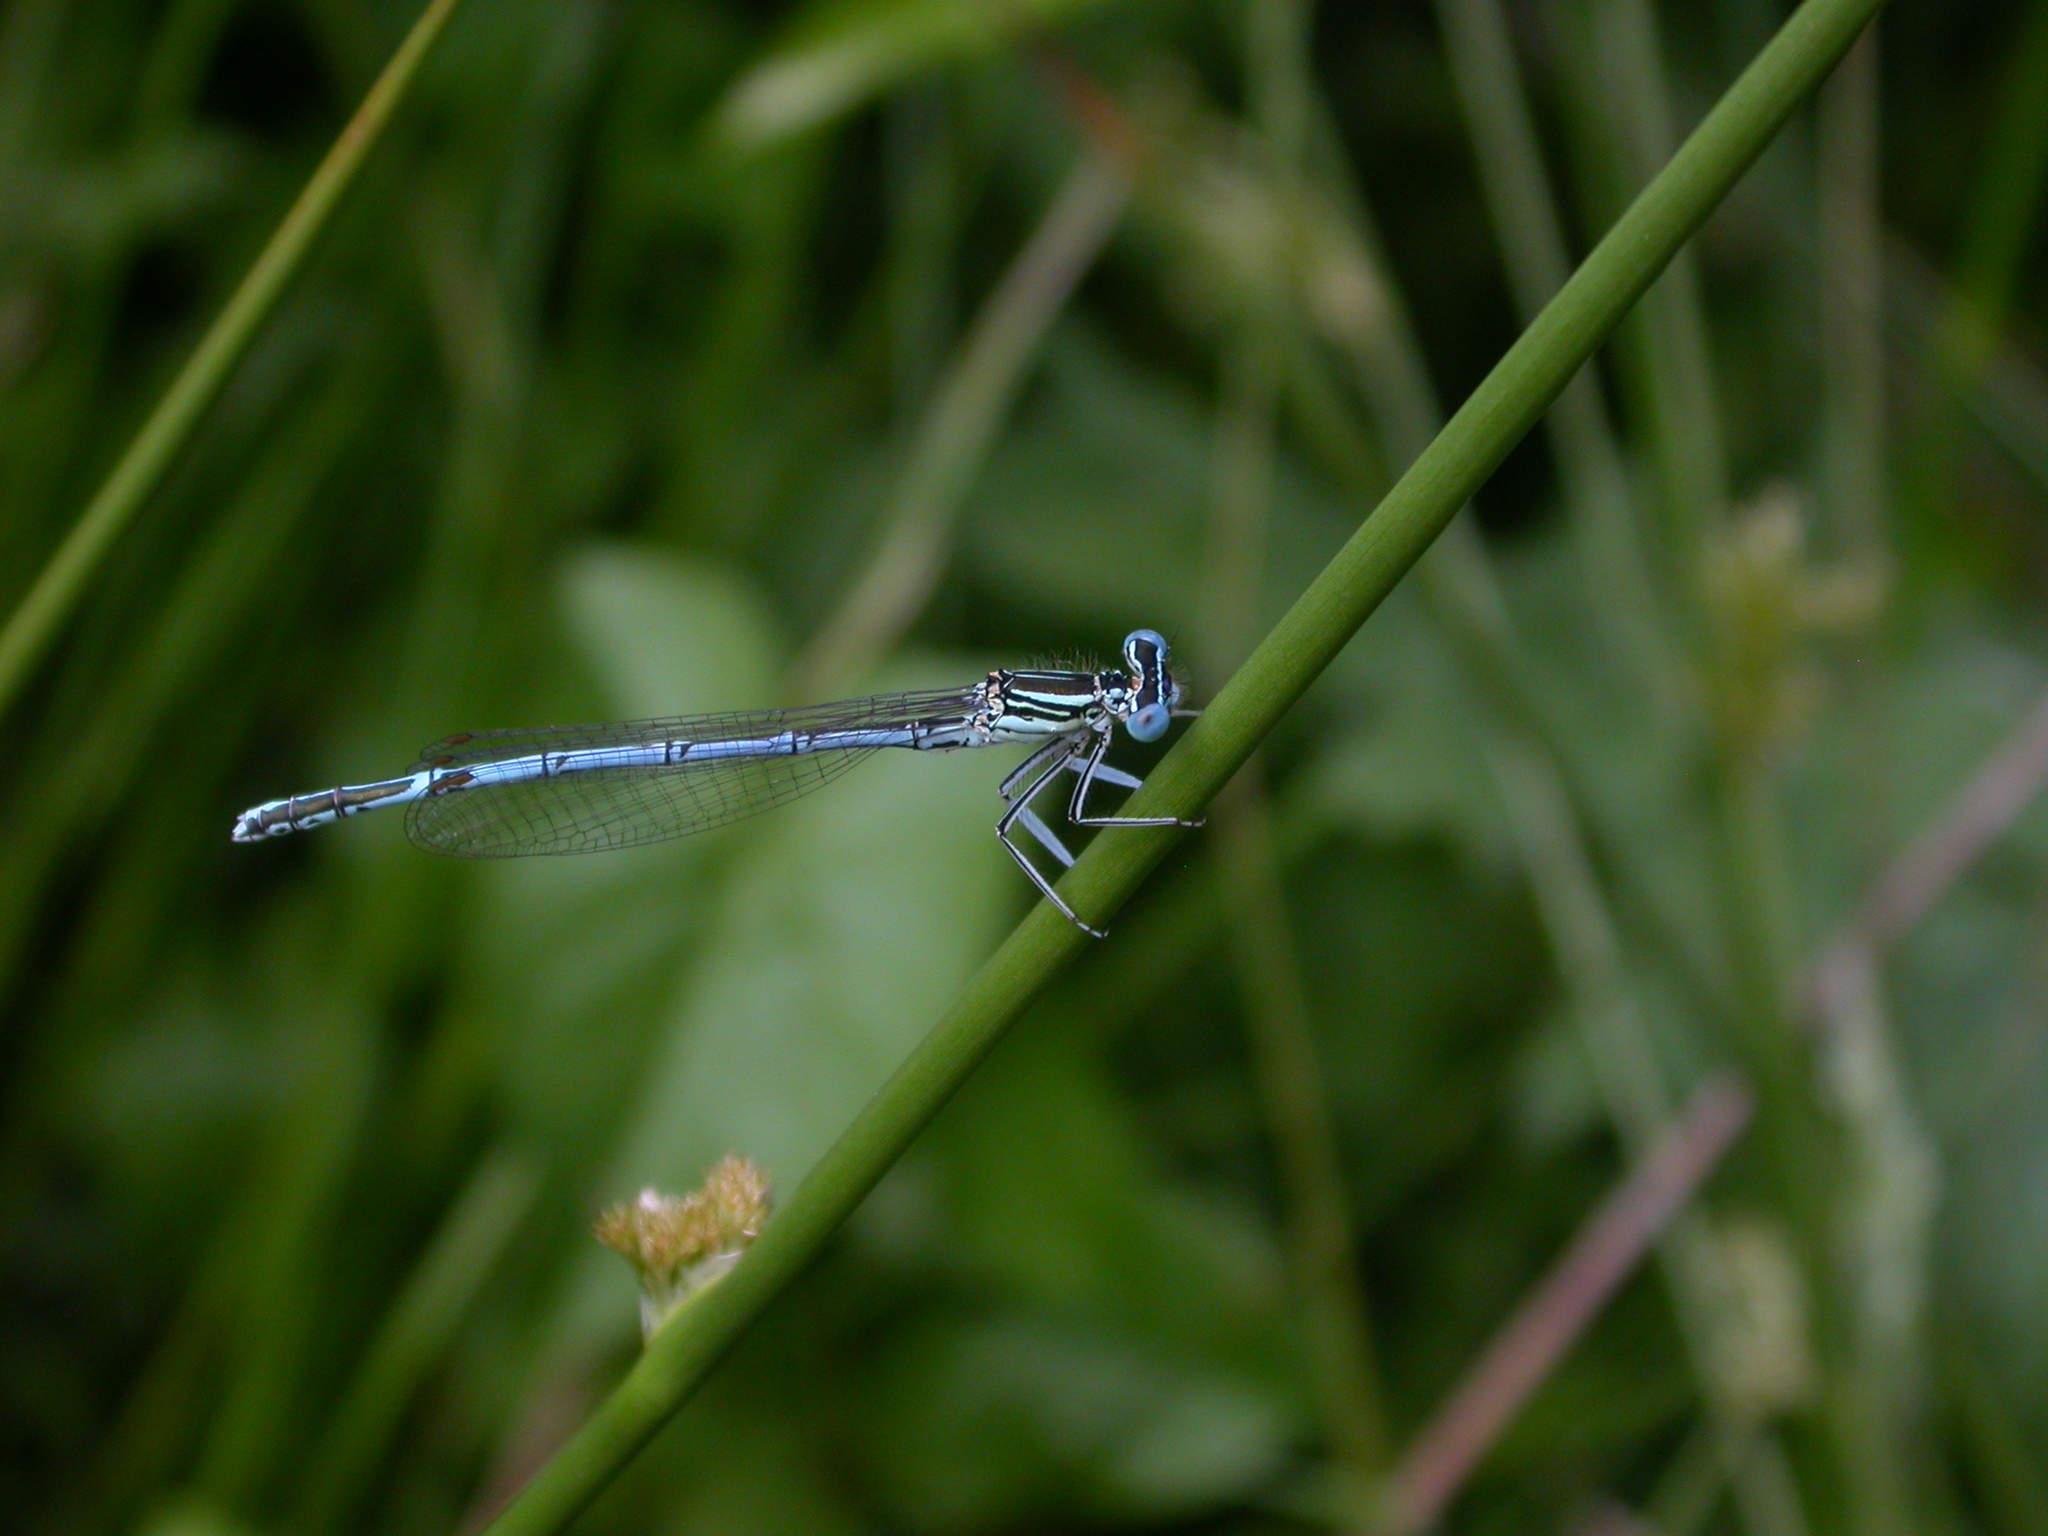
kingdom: Animalia
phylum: Arthropoda
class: Insecta
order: Odonata
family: Platycnemididae
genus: Platycnemis
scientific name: Platycnemis pennipes
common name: White-legged damselfly
